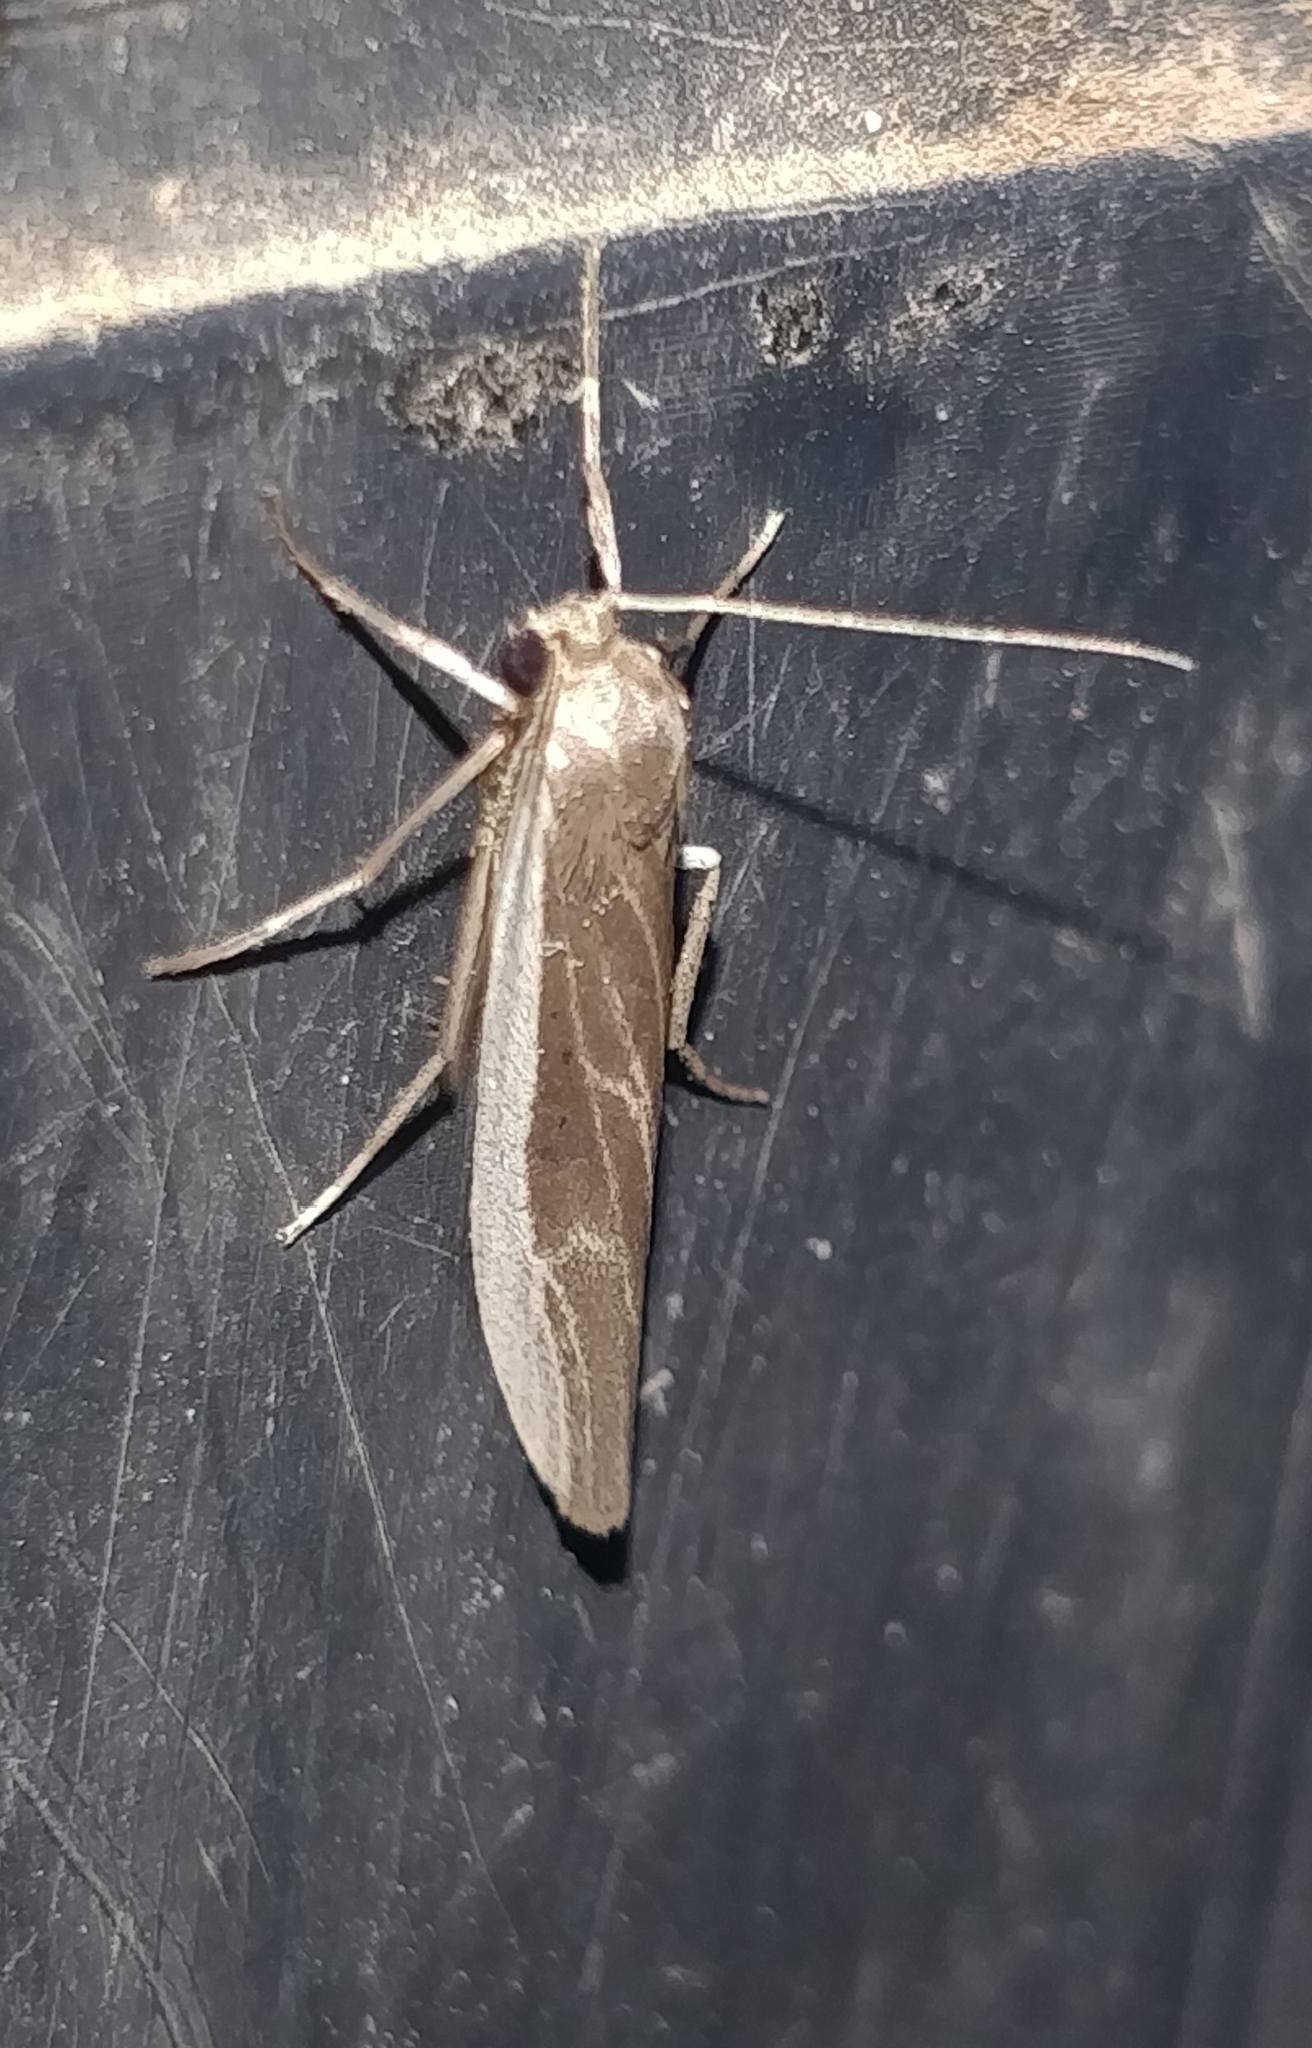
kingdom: Animalia
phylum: Arthropoda
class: Insecta
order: Lepidoptera
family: Erebidae
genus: Indalia
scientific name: Indalia albicosta
